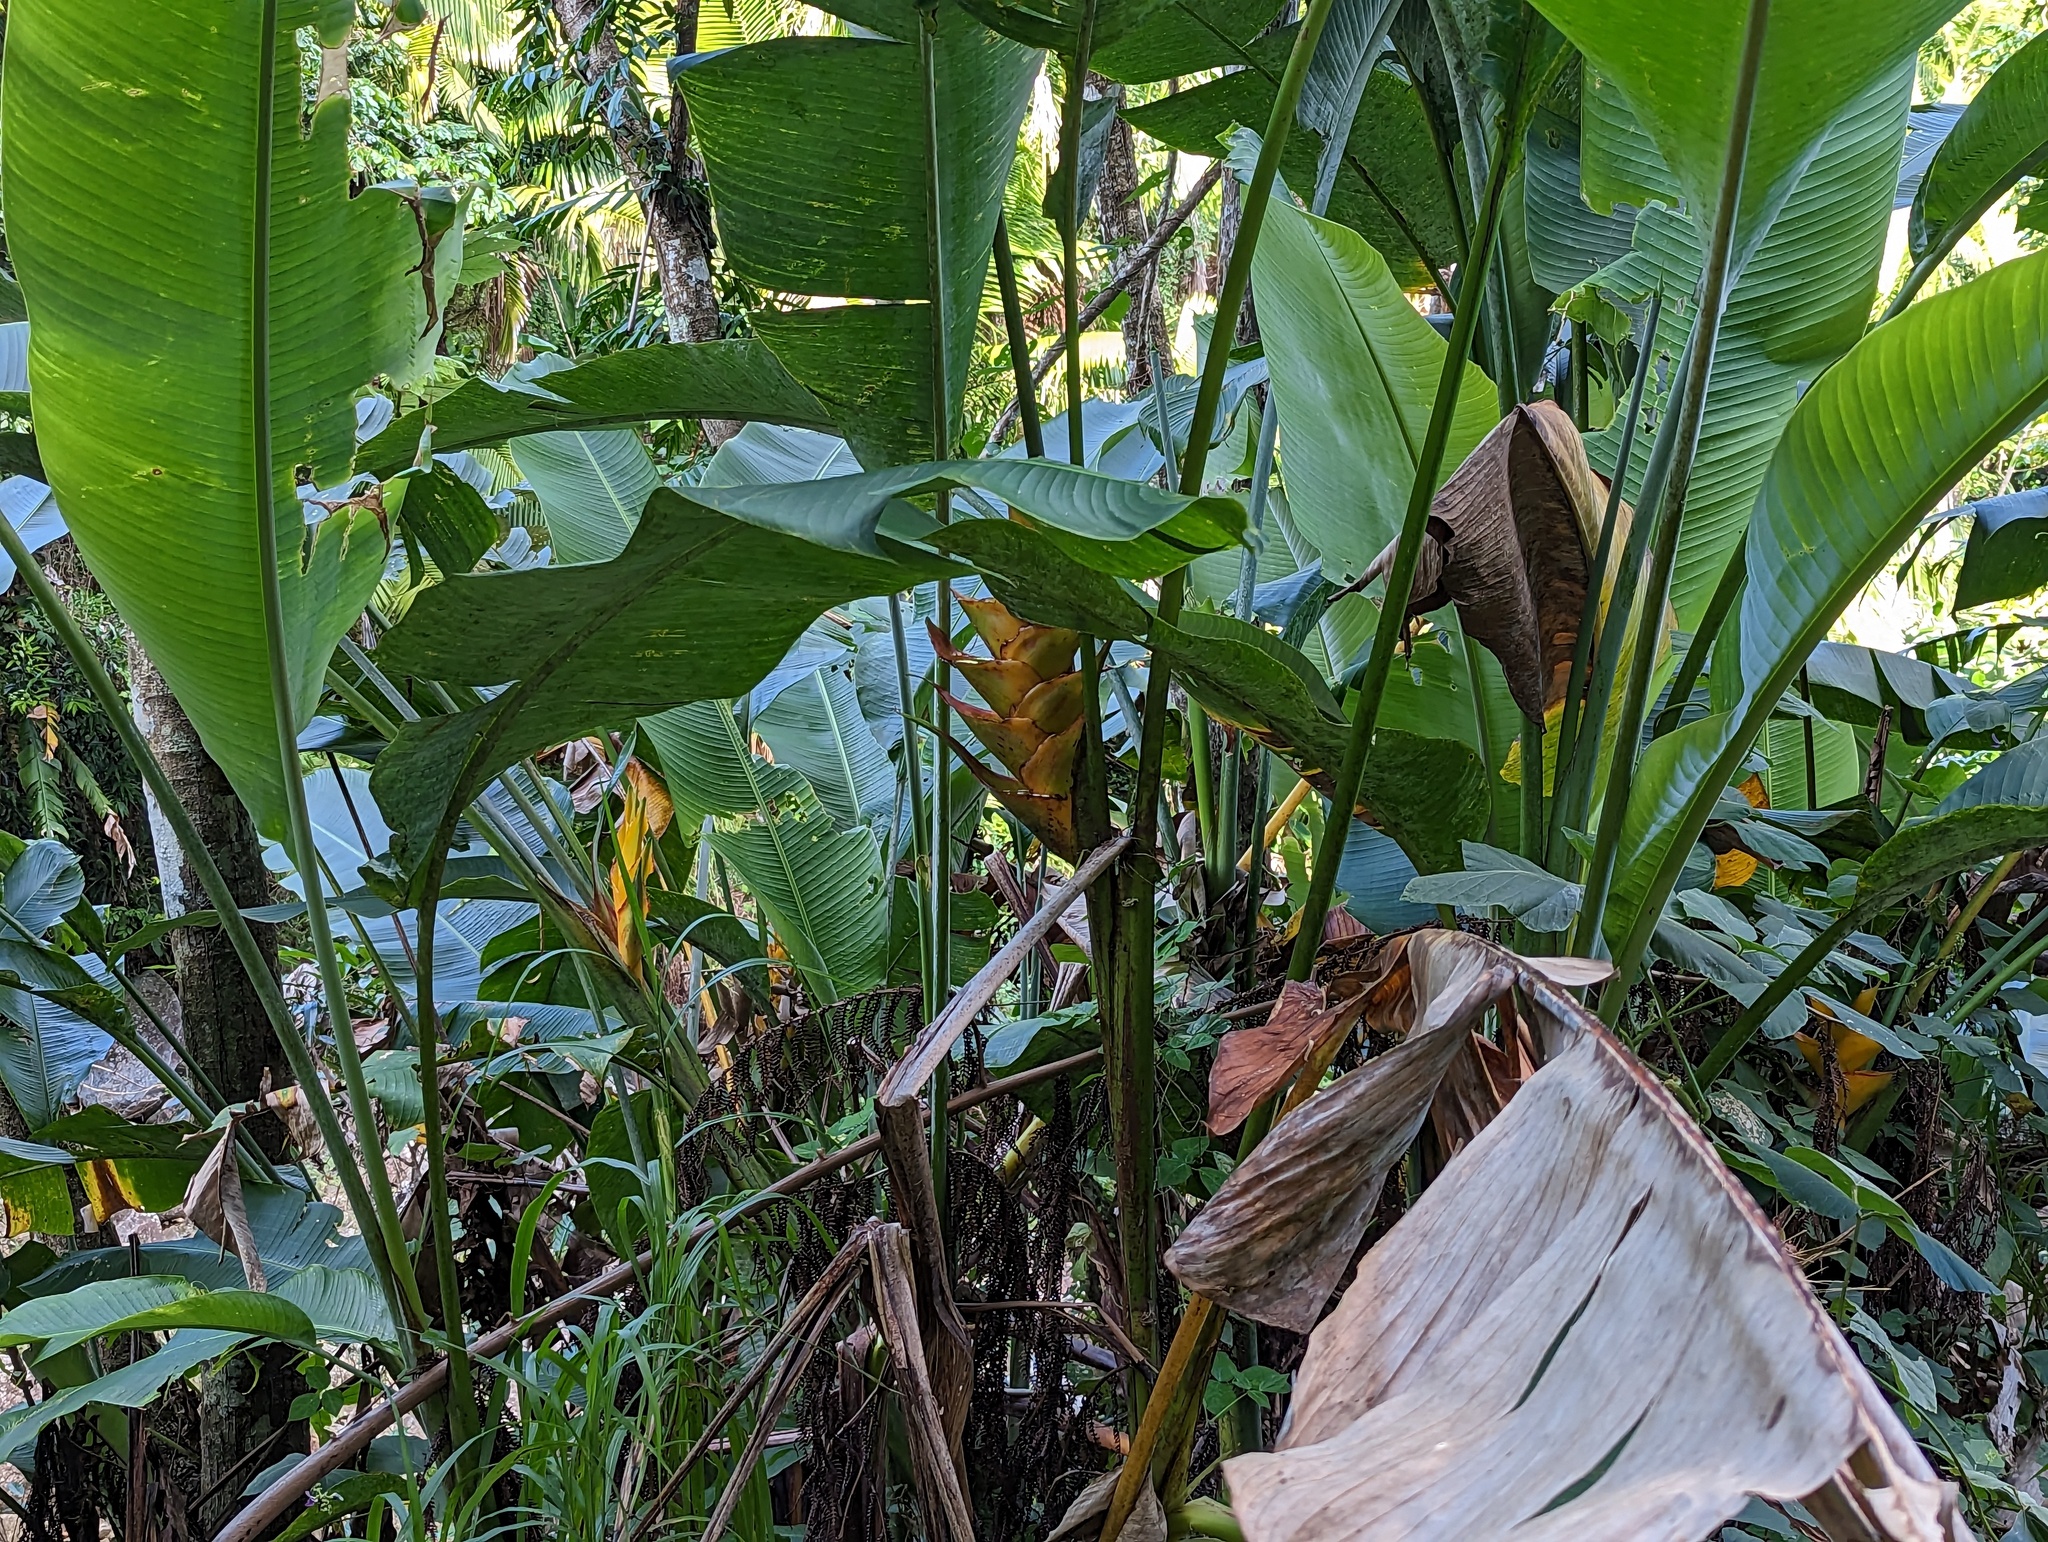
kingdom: Plantae
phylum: Tracheophyta
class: Liliopsida
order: Zingiberales
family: Heliconiaceae
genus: Heliconia
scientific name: Heliconia caribaea
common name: Wild plantain
